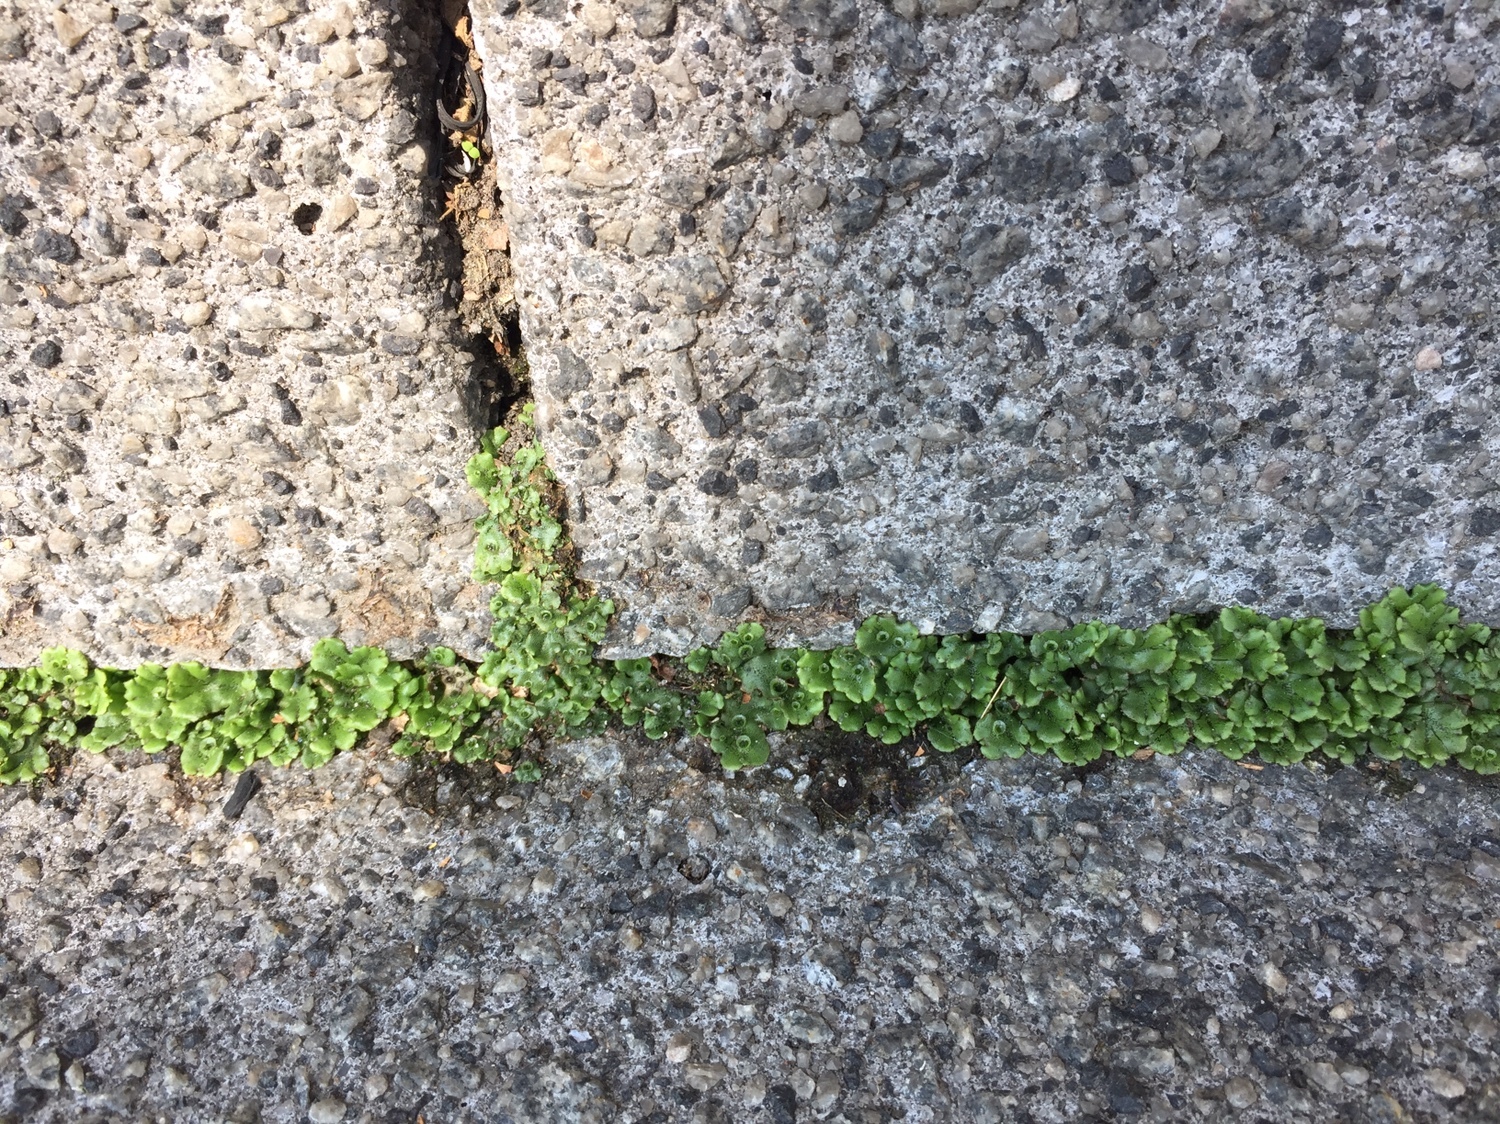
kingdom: Plantae
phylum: Marchantiophyta
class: Marchantiopsida
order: Marchantiales
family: Marchantiaceae
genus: Marchantia
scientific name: Marchantia polymorpha
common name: Common liverwort
